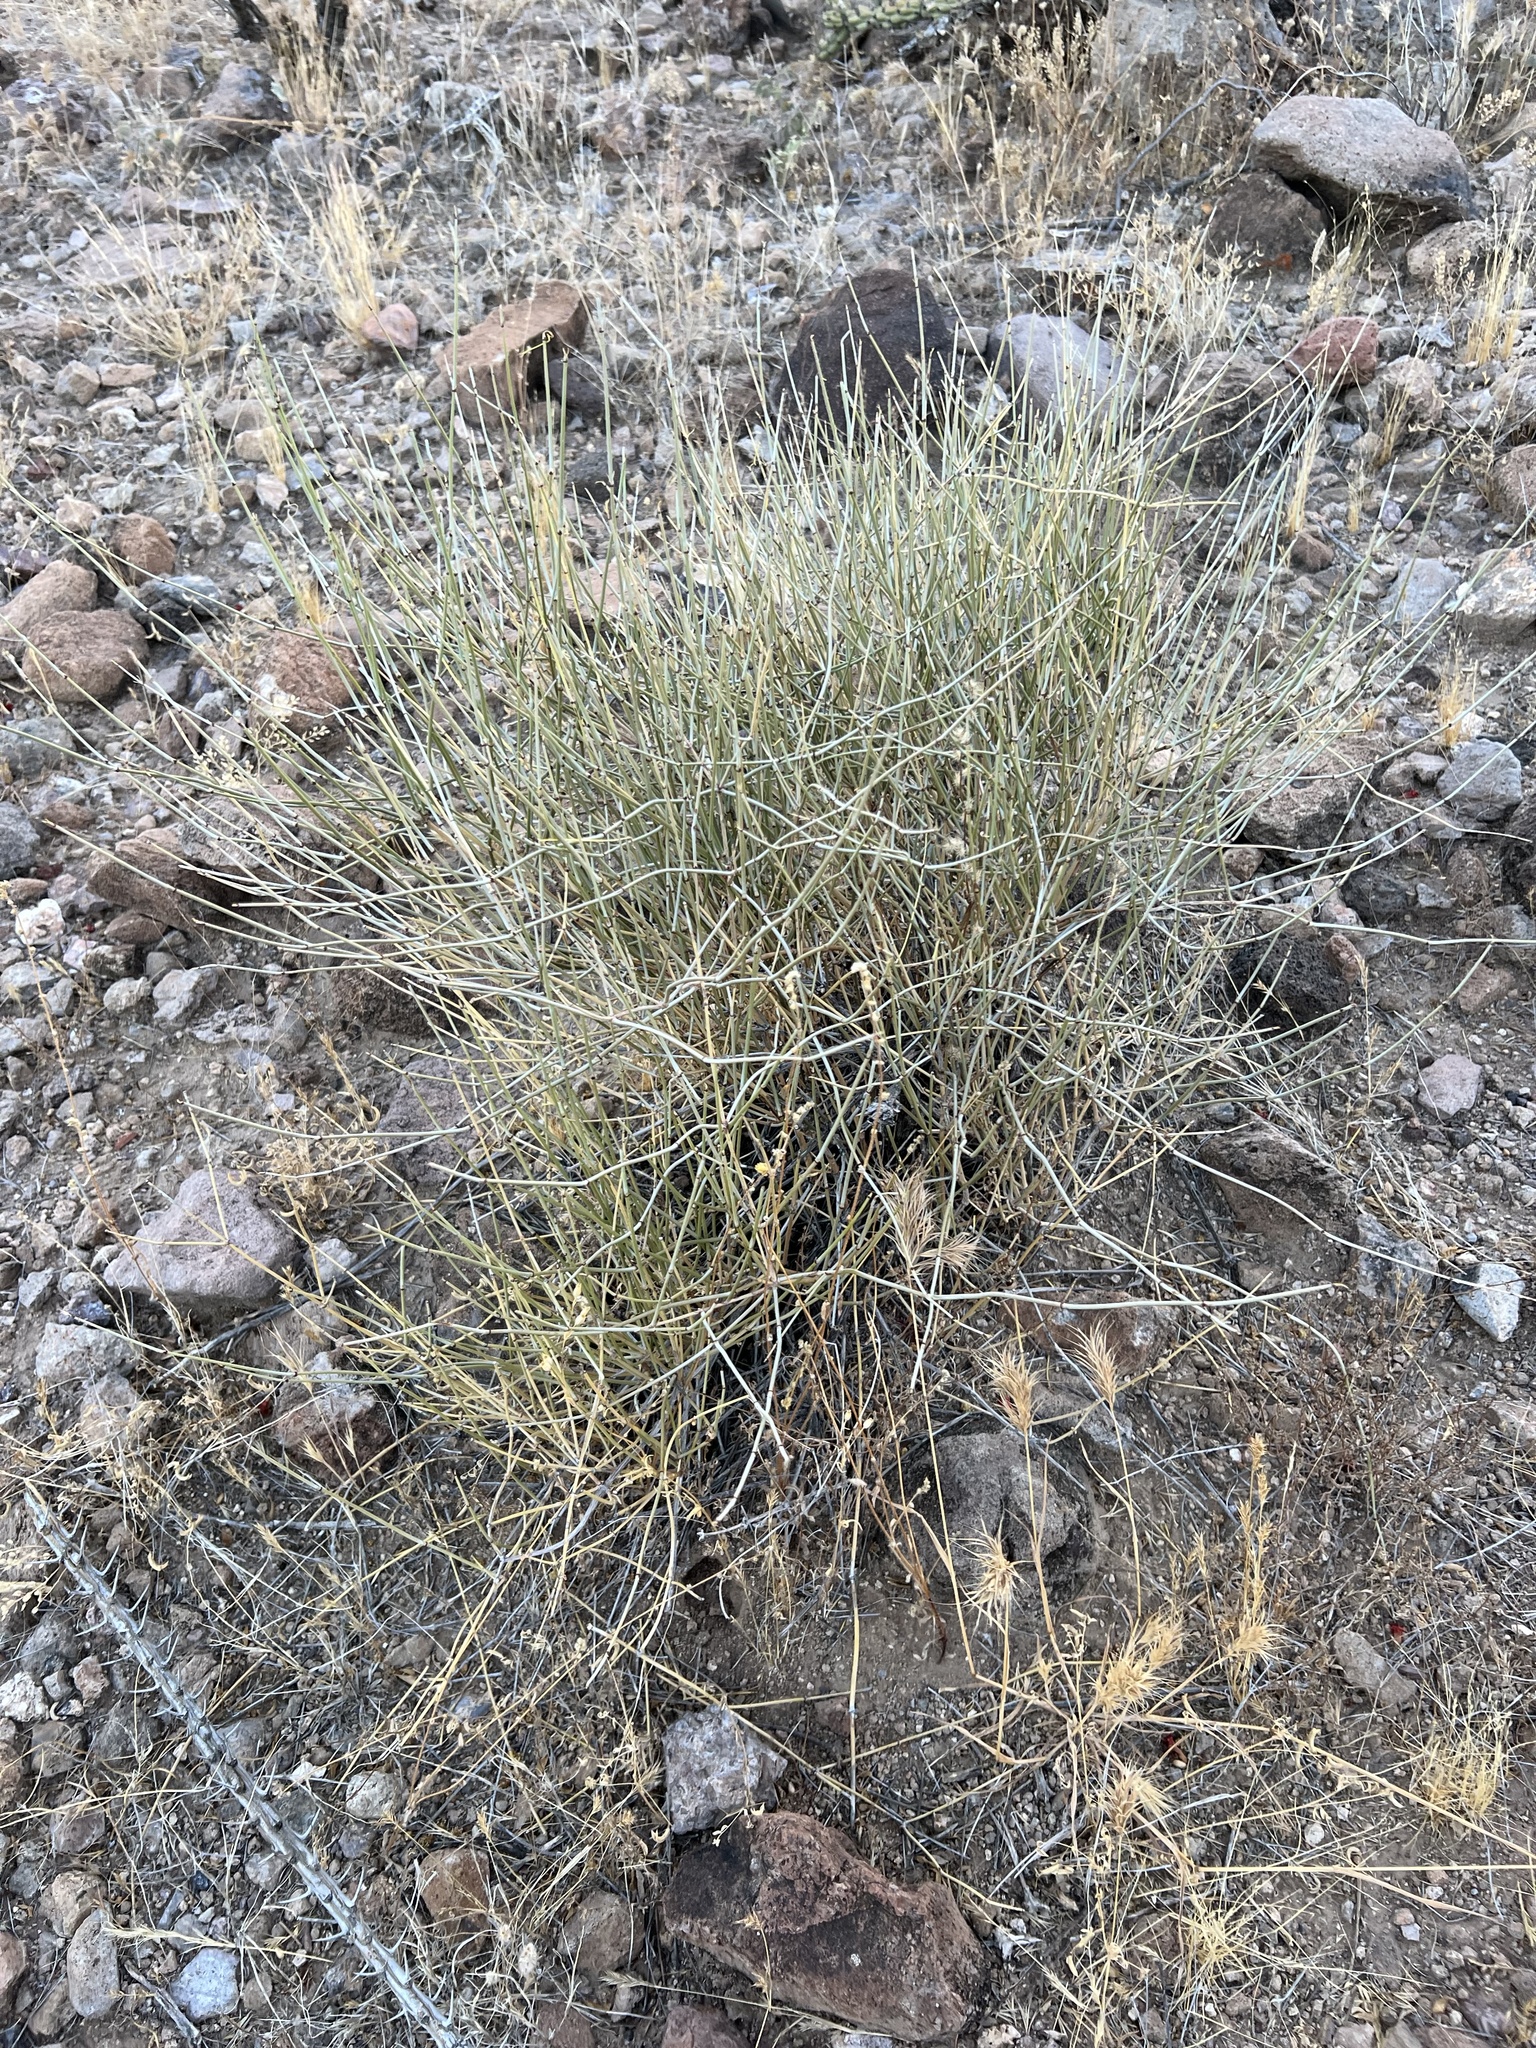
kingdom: Plantae
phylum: Tracheophyta
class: Gnetopsida
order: Ephedrales
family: Ephedraceae
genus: Ephedra
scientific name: Ephedra viridis
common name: Green ephedra
